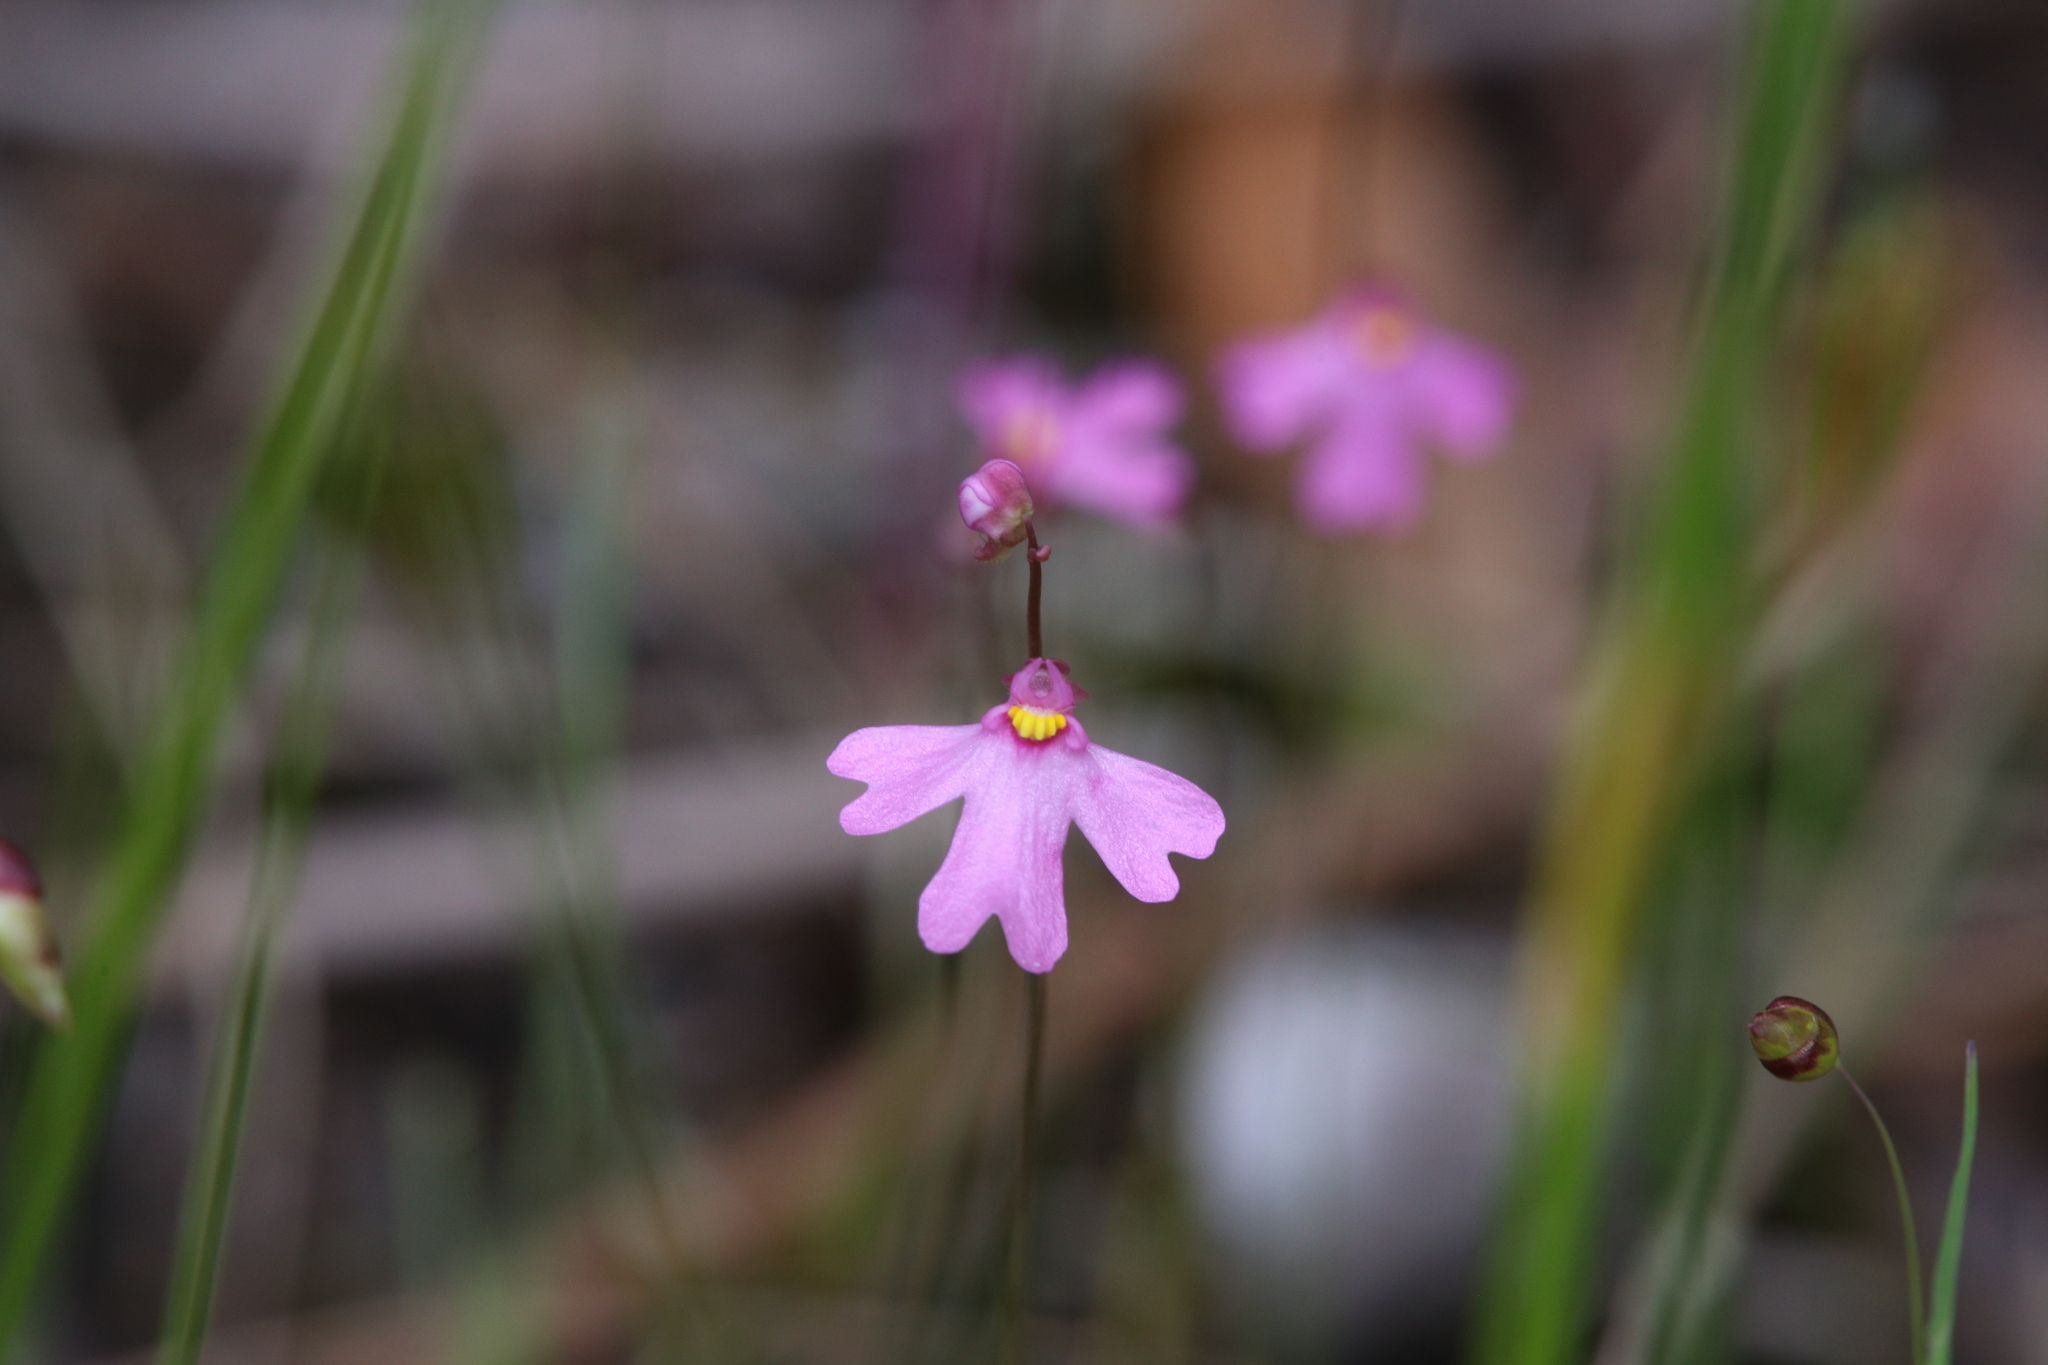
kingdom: Plantae
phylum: Tracheophyta
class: Magnoliopsida
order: Lamiales
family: Lentibulariaceae
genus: Utricularia
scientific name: Utricularia multifida
